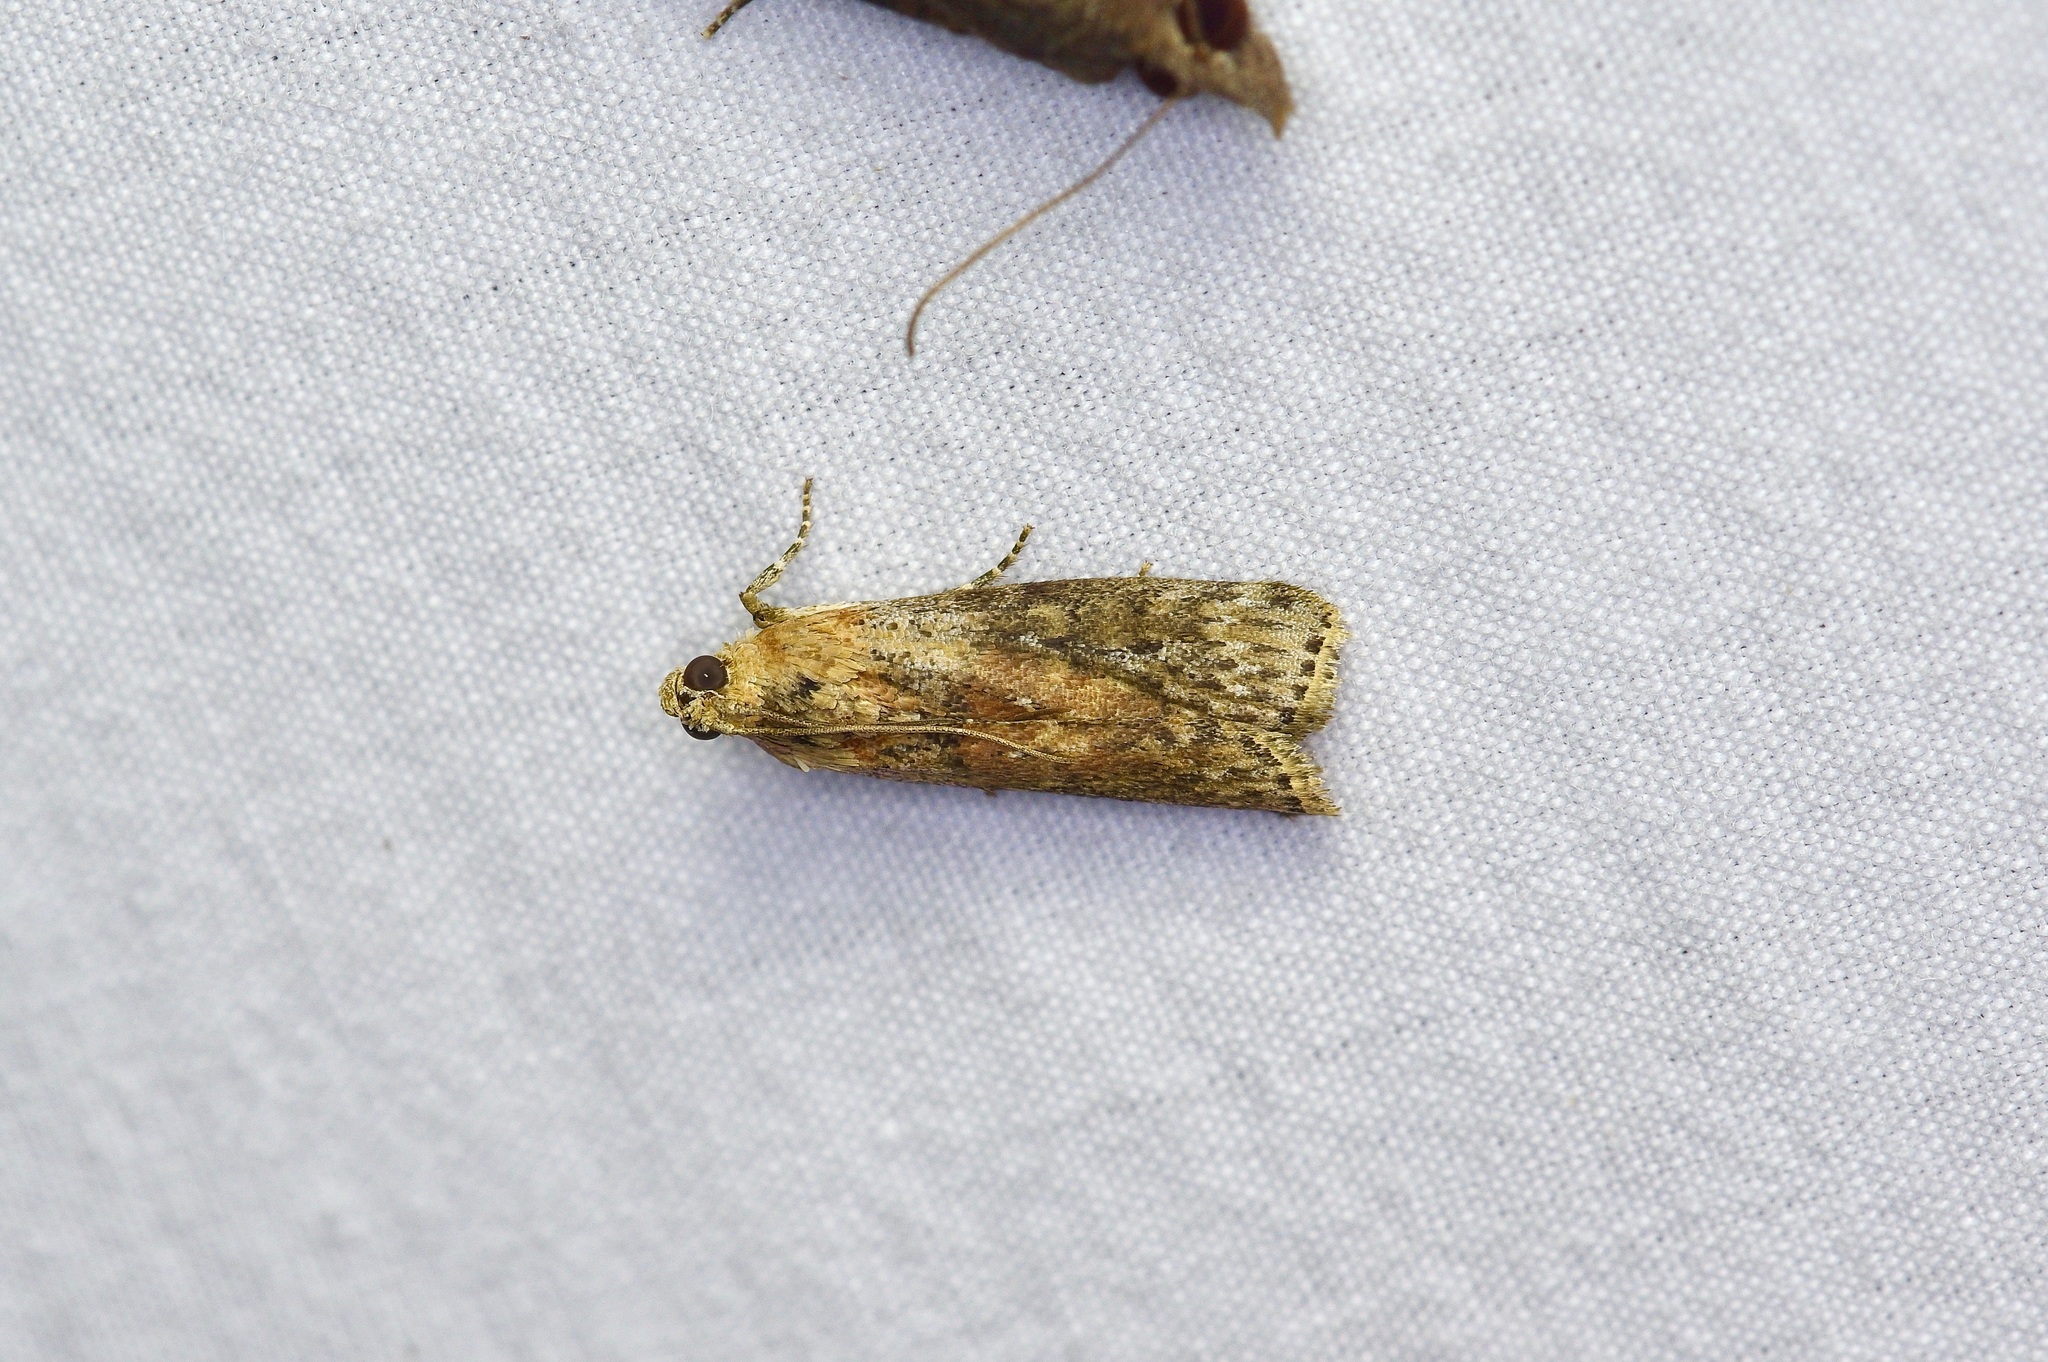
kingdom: Animalia
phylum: Arthropoda
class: Insecta
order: Lepidoptera
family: Pyralidae
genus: Sciota
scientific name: Sciota celtidella
